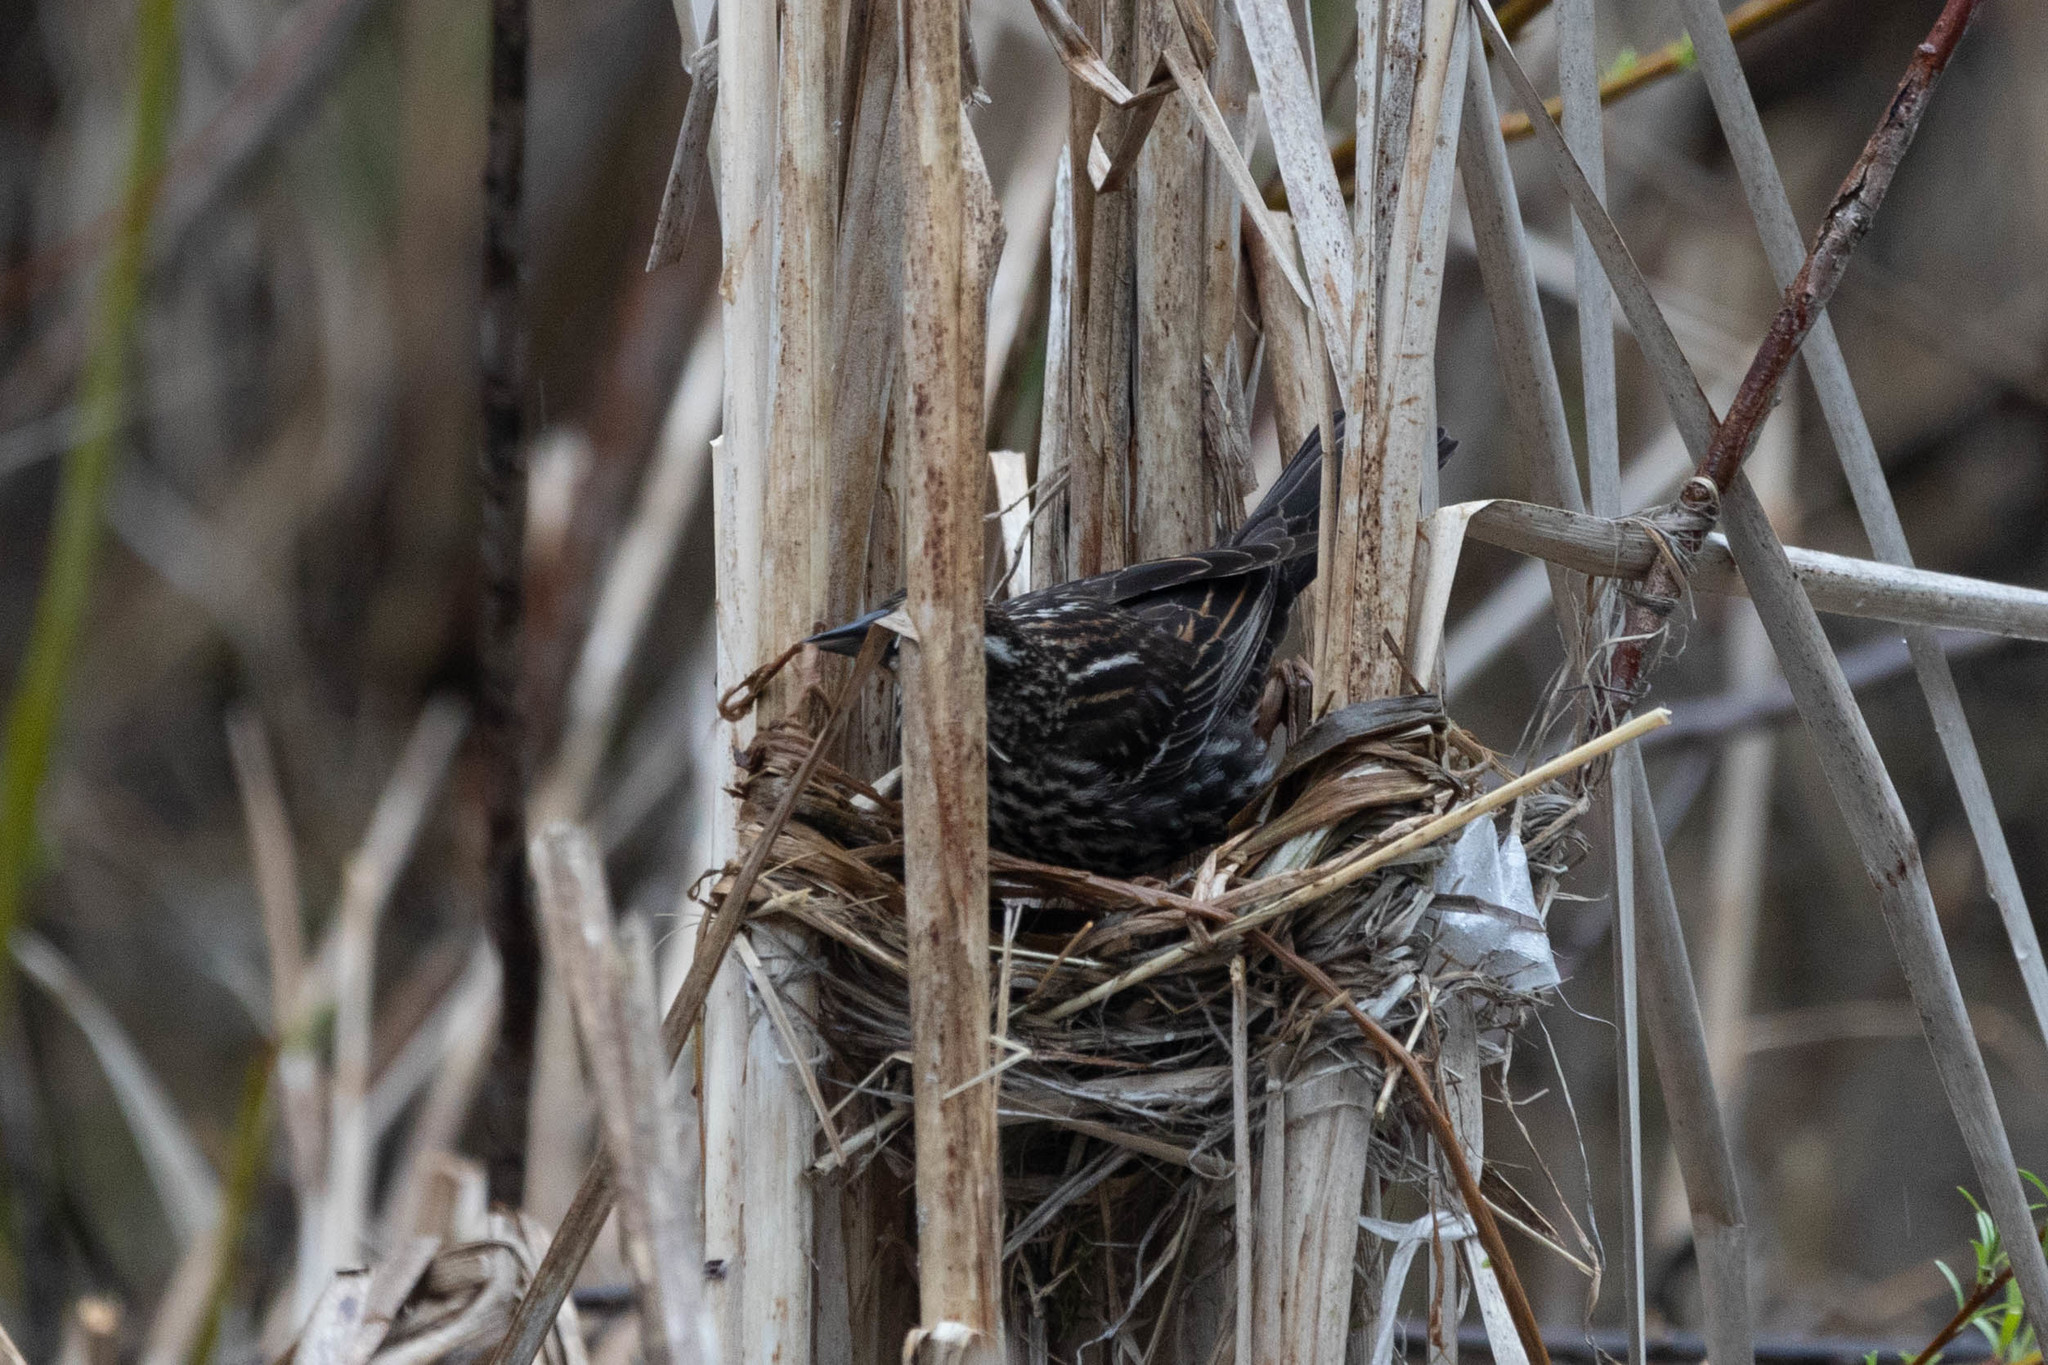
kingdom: Animalia
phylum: Chordata
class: Aves
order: Passeriformes
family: Icteridae
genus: Agelaius
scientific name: Agelaius phoeniceus
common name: Red-winged blackbird
